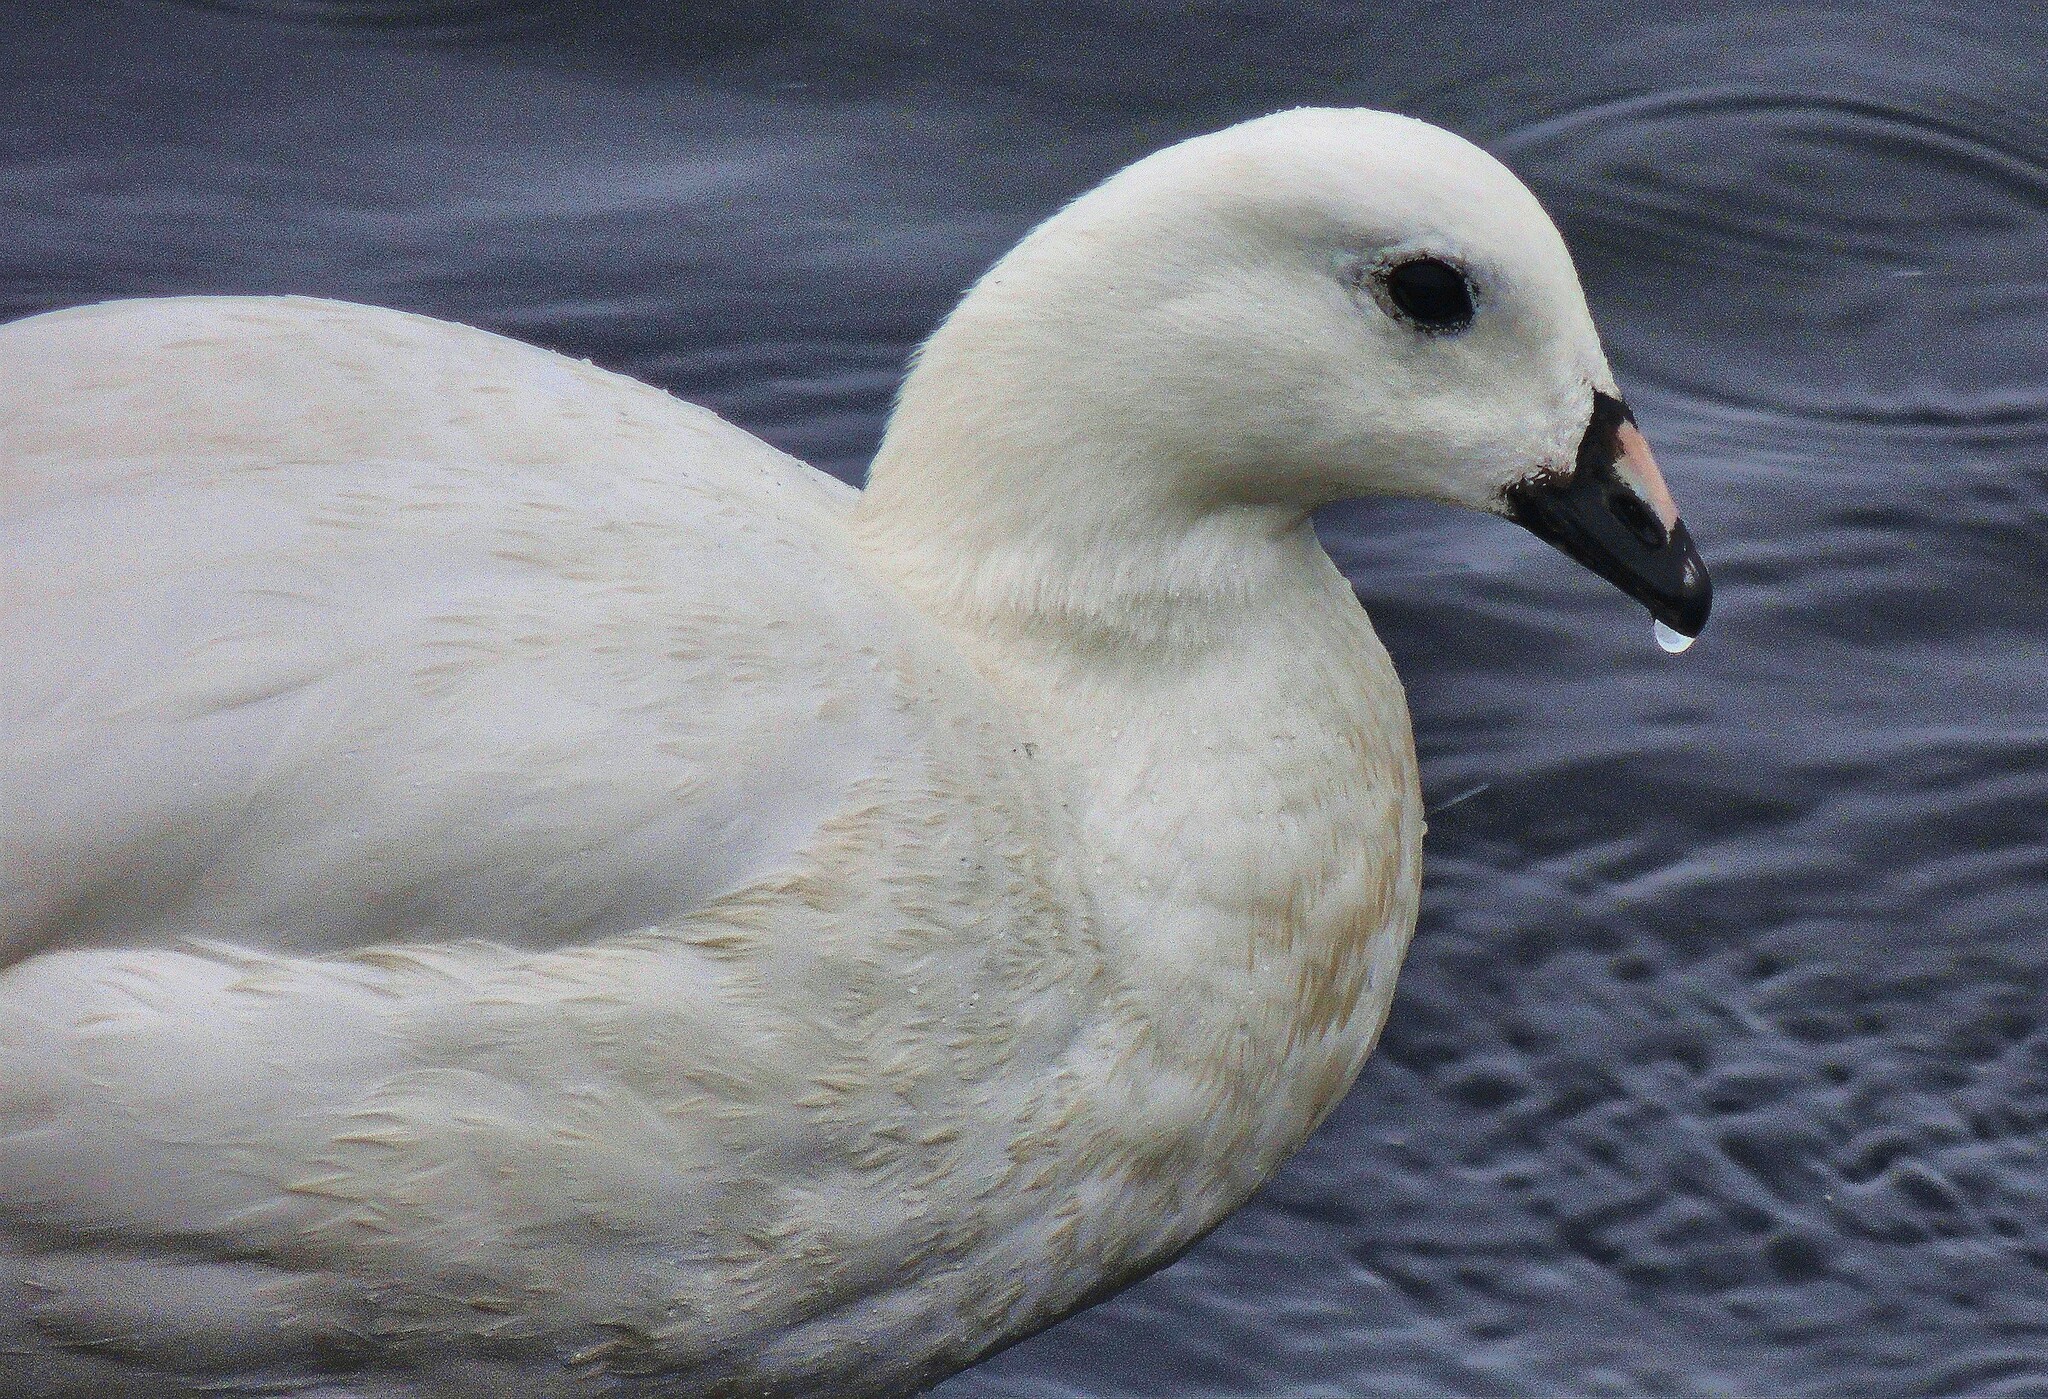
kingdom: Animalia
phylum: Chordata
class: Aves
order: Anseriformes
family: Anatidae
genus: Chloephaga
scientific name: Chloephaga hybrida
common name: Kelp goose
